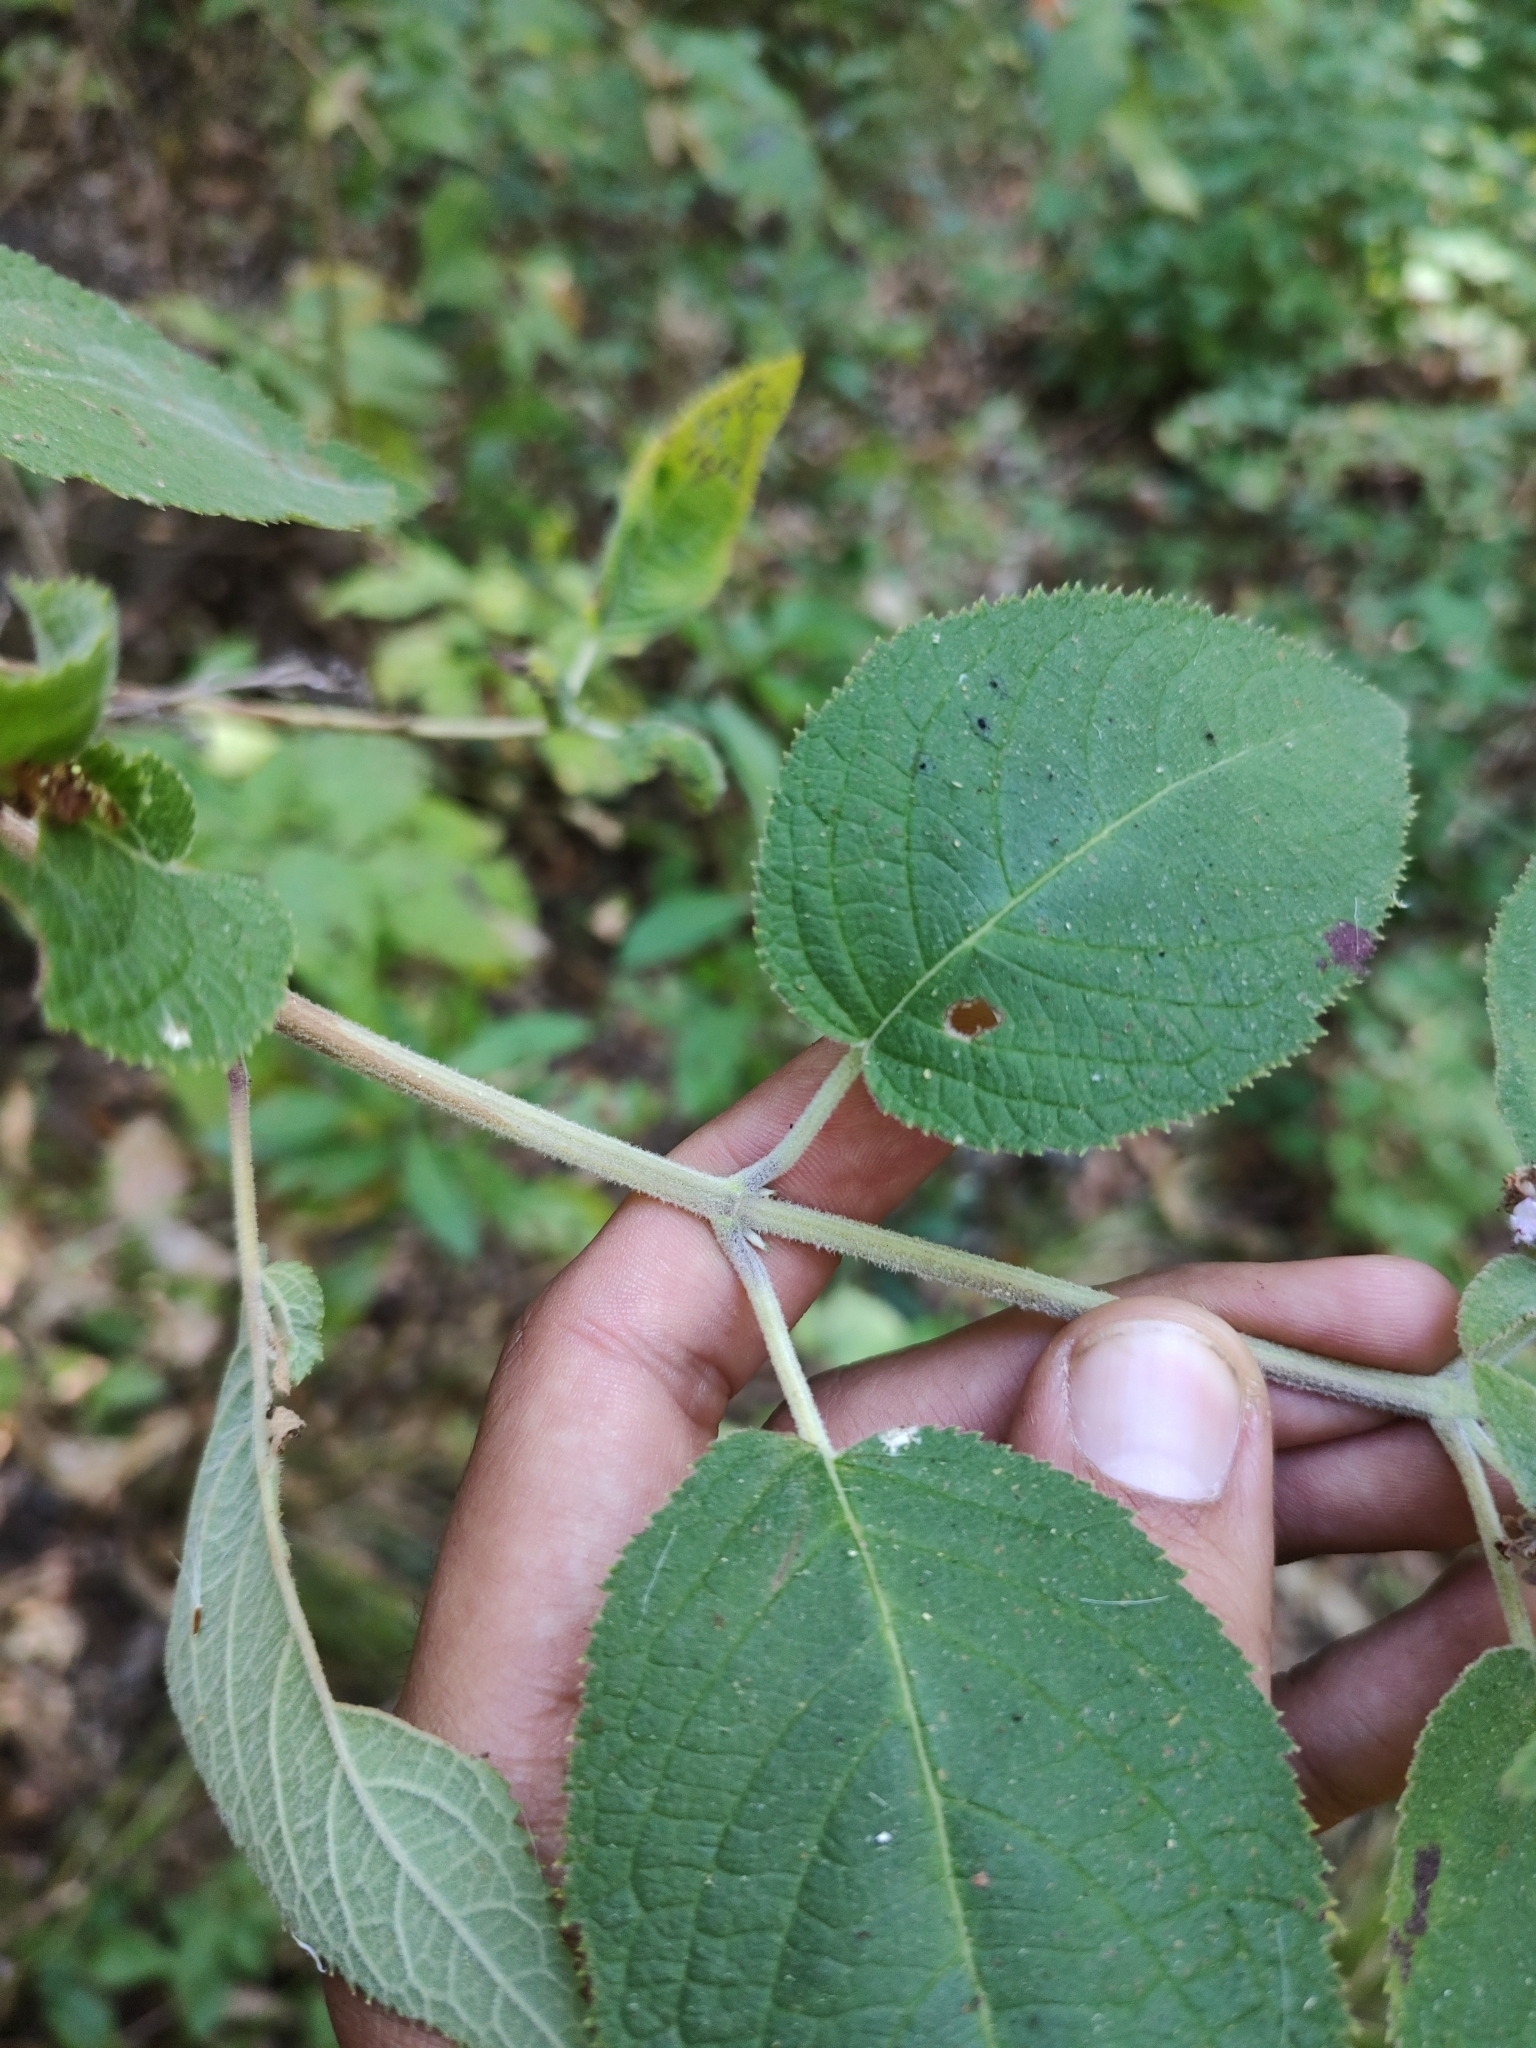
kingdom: Plantae
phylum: Tracheophyta
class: Magnoliopsida
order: Lamiales
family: Lamiaceae
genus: Mesosphaerum
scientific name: Mesosphaerum oblongifolium
